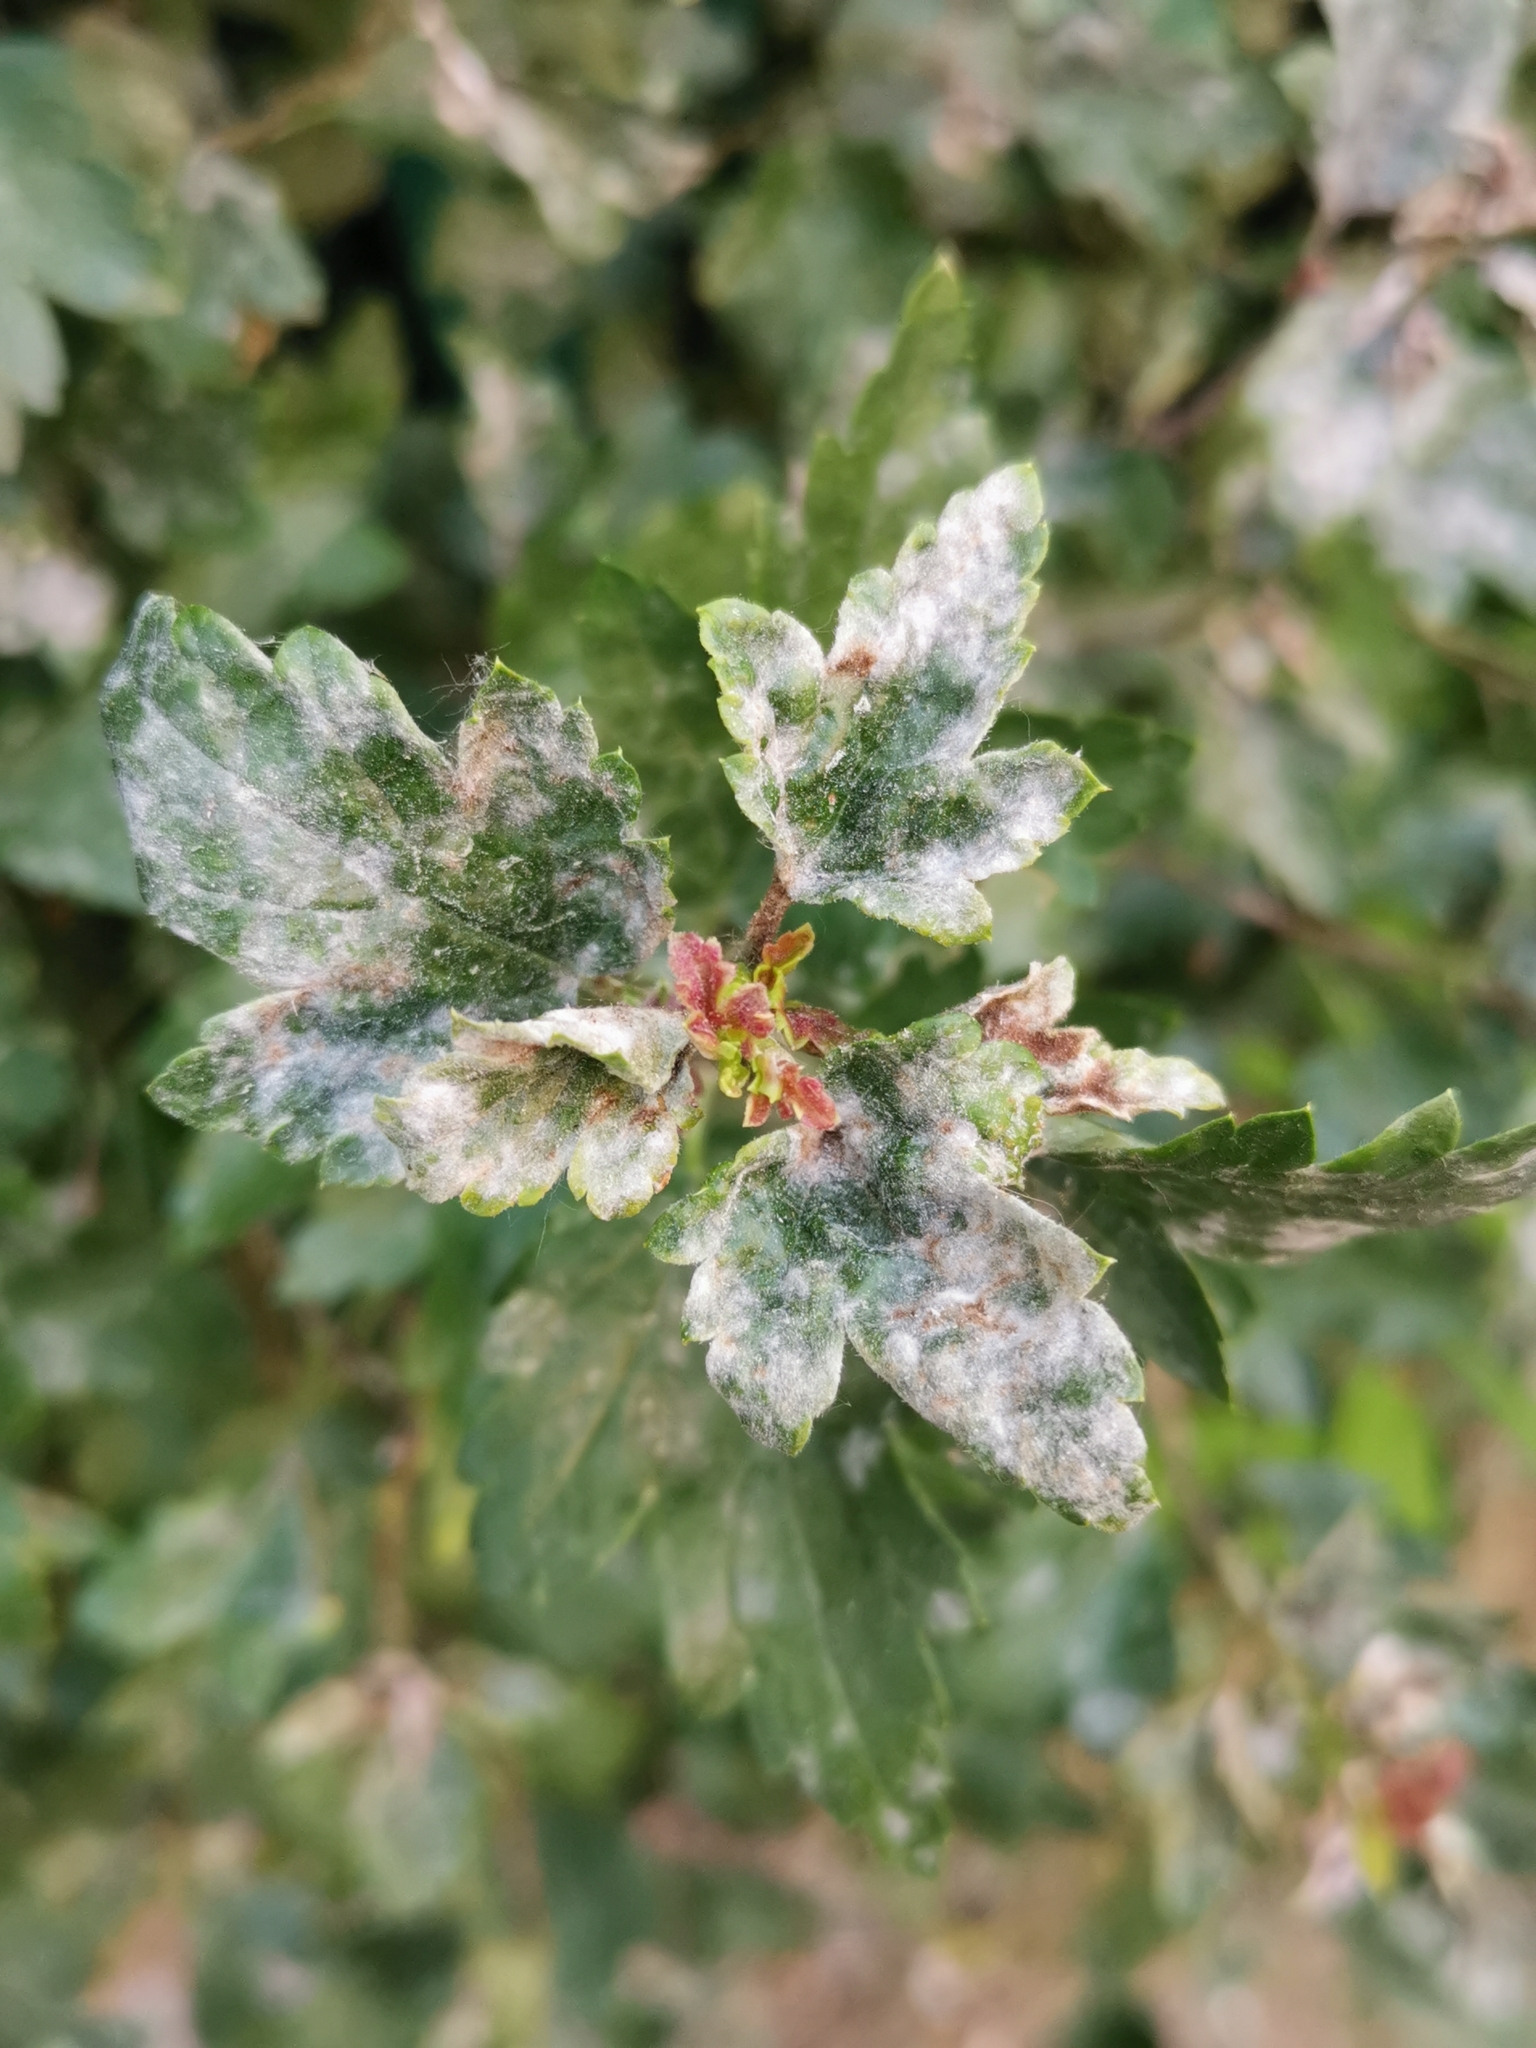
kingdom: Fungi
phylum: Ascomycota
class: Leotiomycetes
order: Helotiales
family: Erysiphaceae
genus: Podosphaera
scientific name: Podosphaera mors-uvae
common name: American gooseberry mildew
